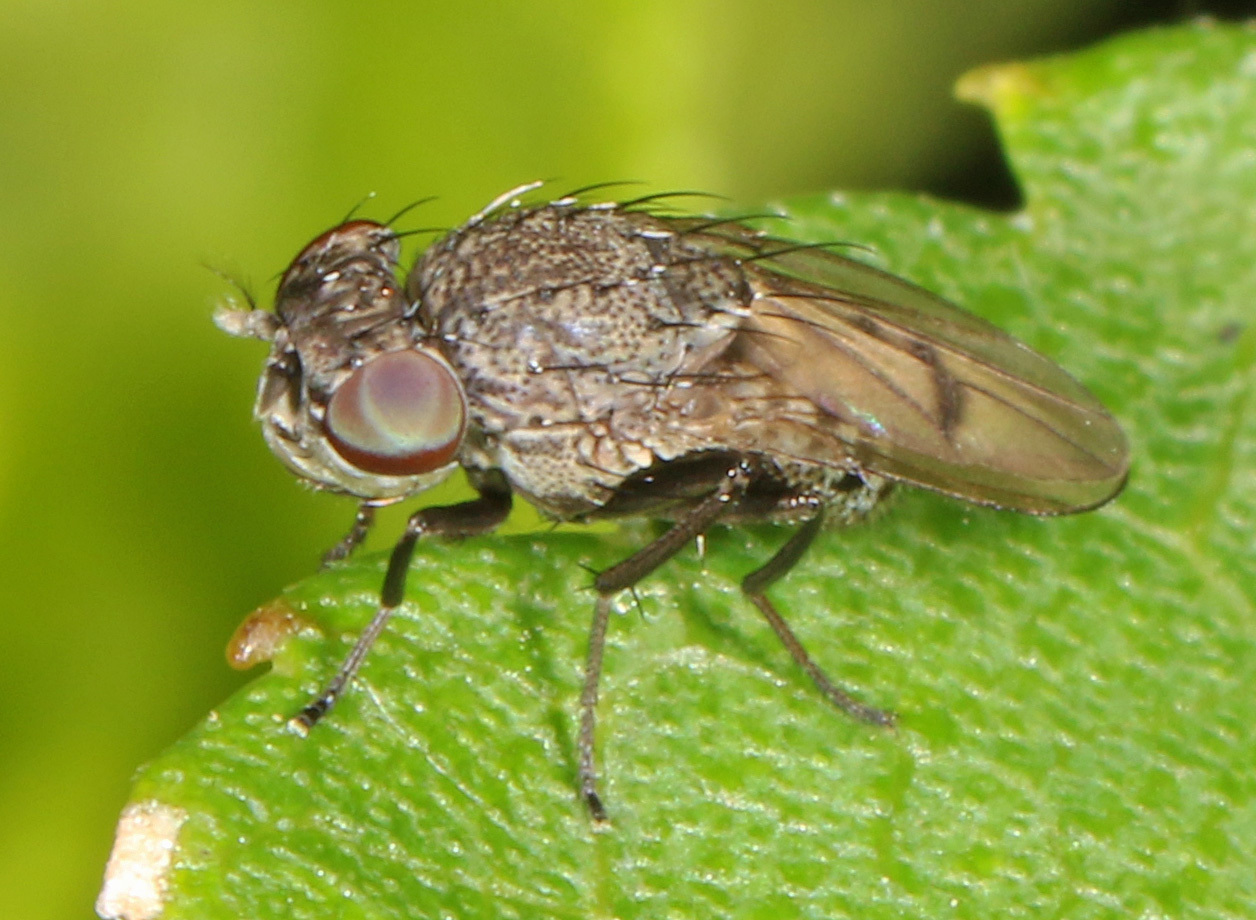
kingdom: Animalia
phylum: Arthropoda
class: Insecta
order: Diptera
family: Ephydridae
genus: Paralimna
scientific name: Paralimna punctipennis
